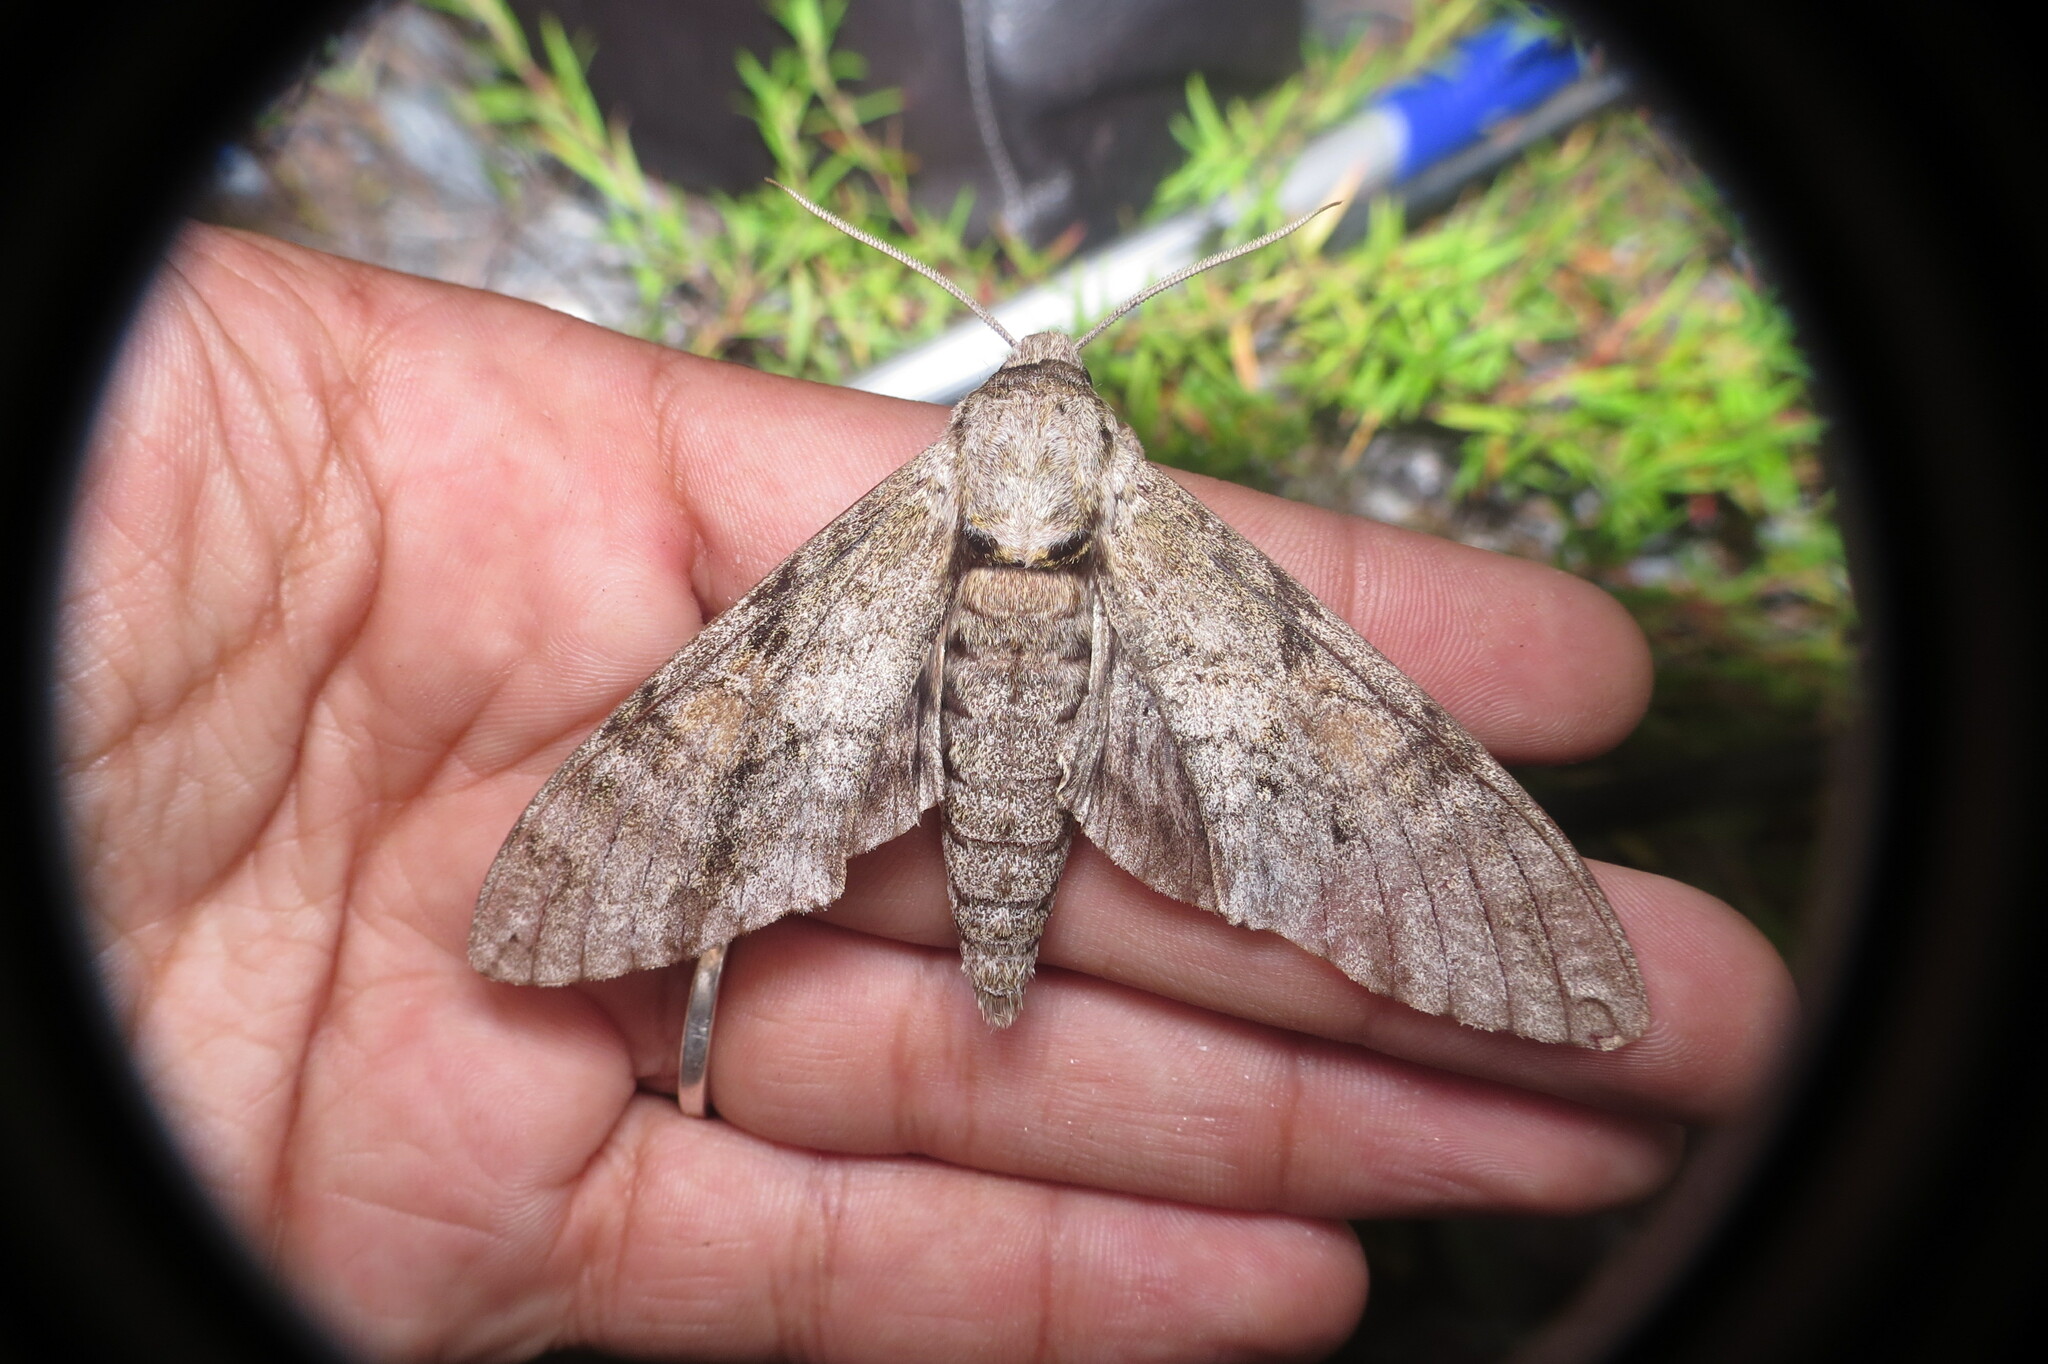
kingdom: Animalia
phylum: Arthropoda
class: Insecta
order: Lepidoptera
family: Sphingidae
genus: Manduca
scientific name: Manduca jasminearum
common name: Ash sphinx
